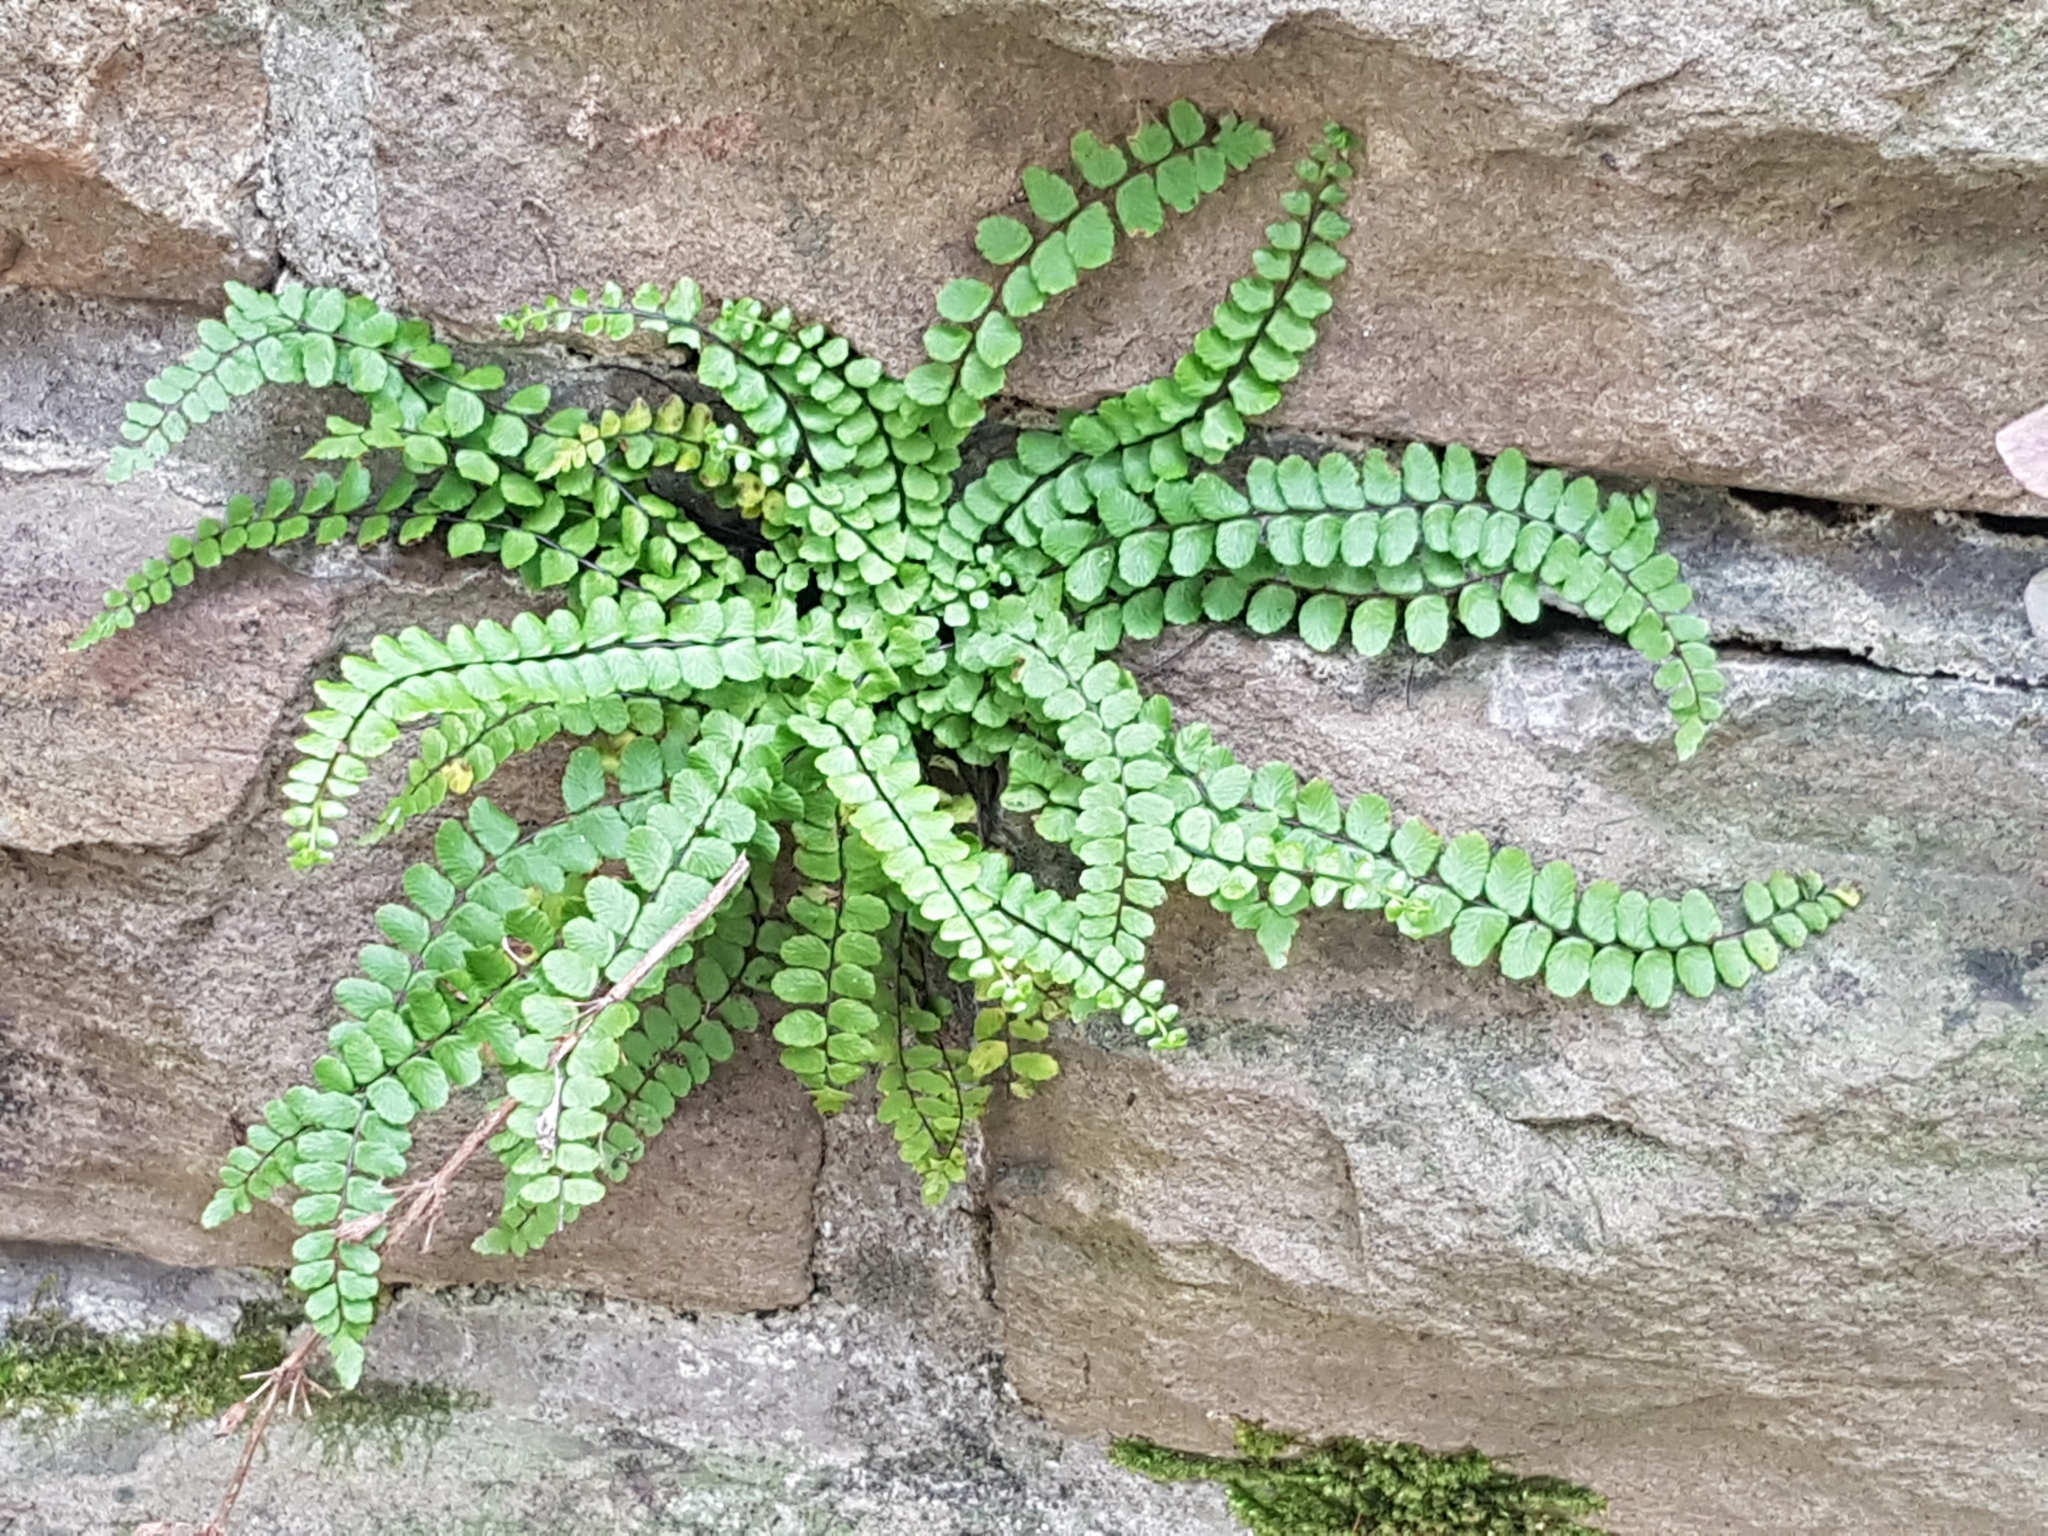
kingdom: Plantae
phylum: Tracheophyta
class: Polypodiopsida
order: Polypodiales
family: Aspleniaceae
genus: Asplenium
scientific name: Asplenium trichomanes
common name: Maidenhair spleenwort
